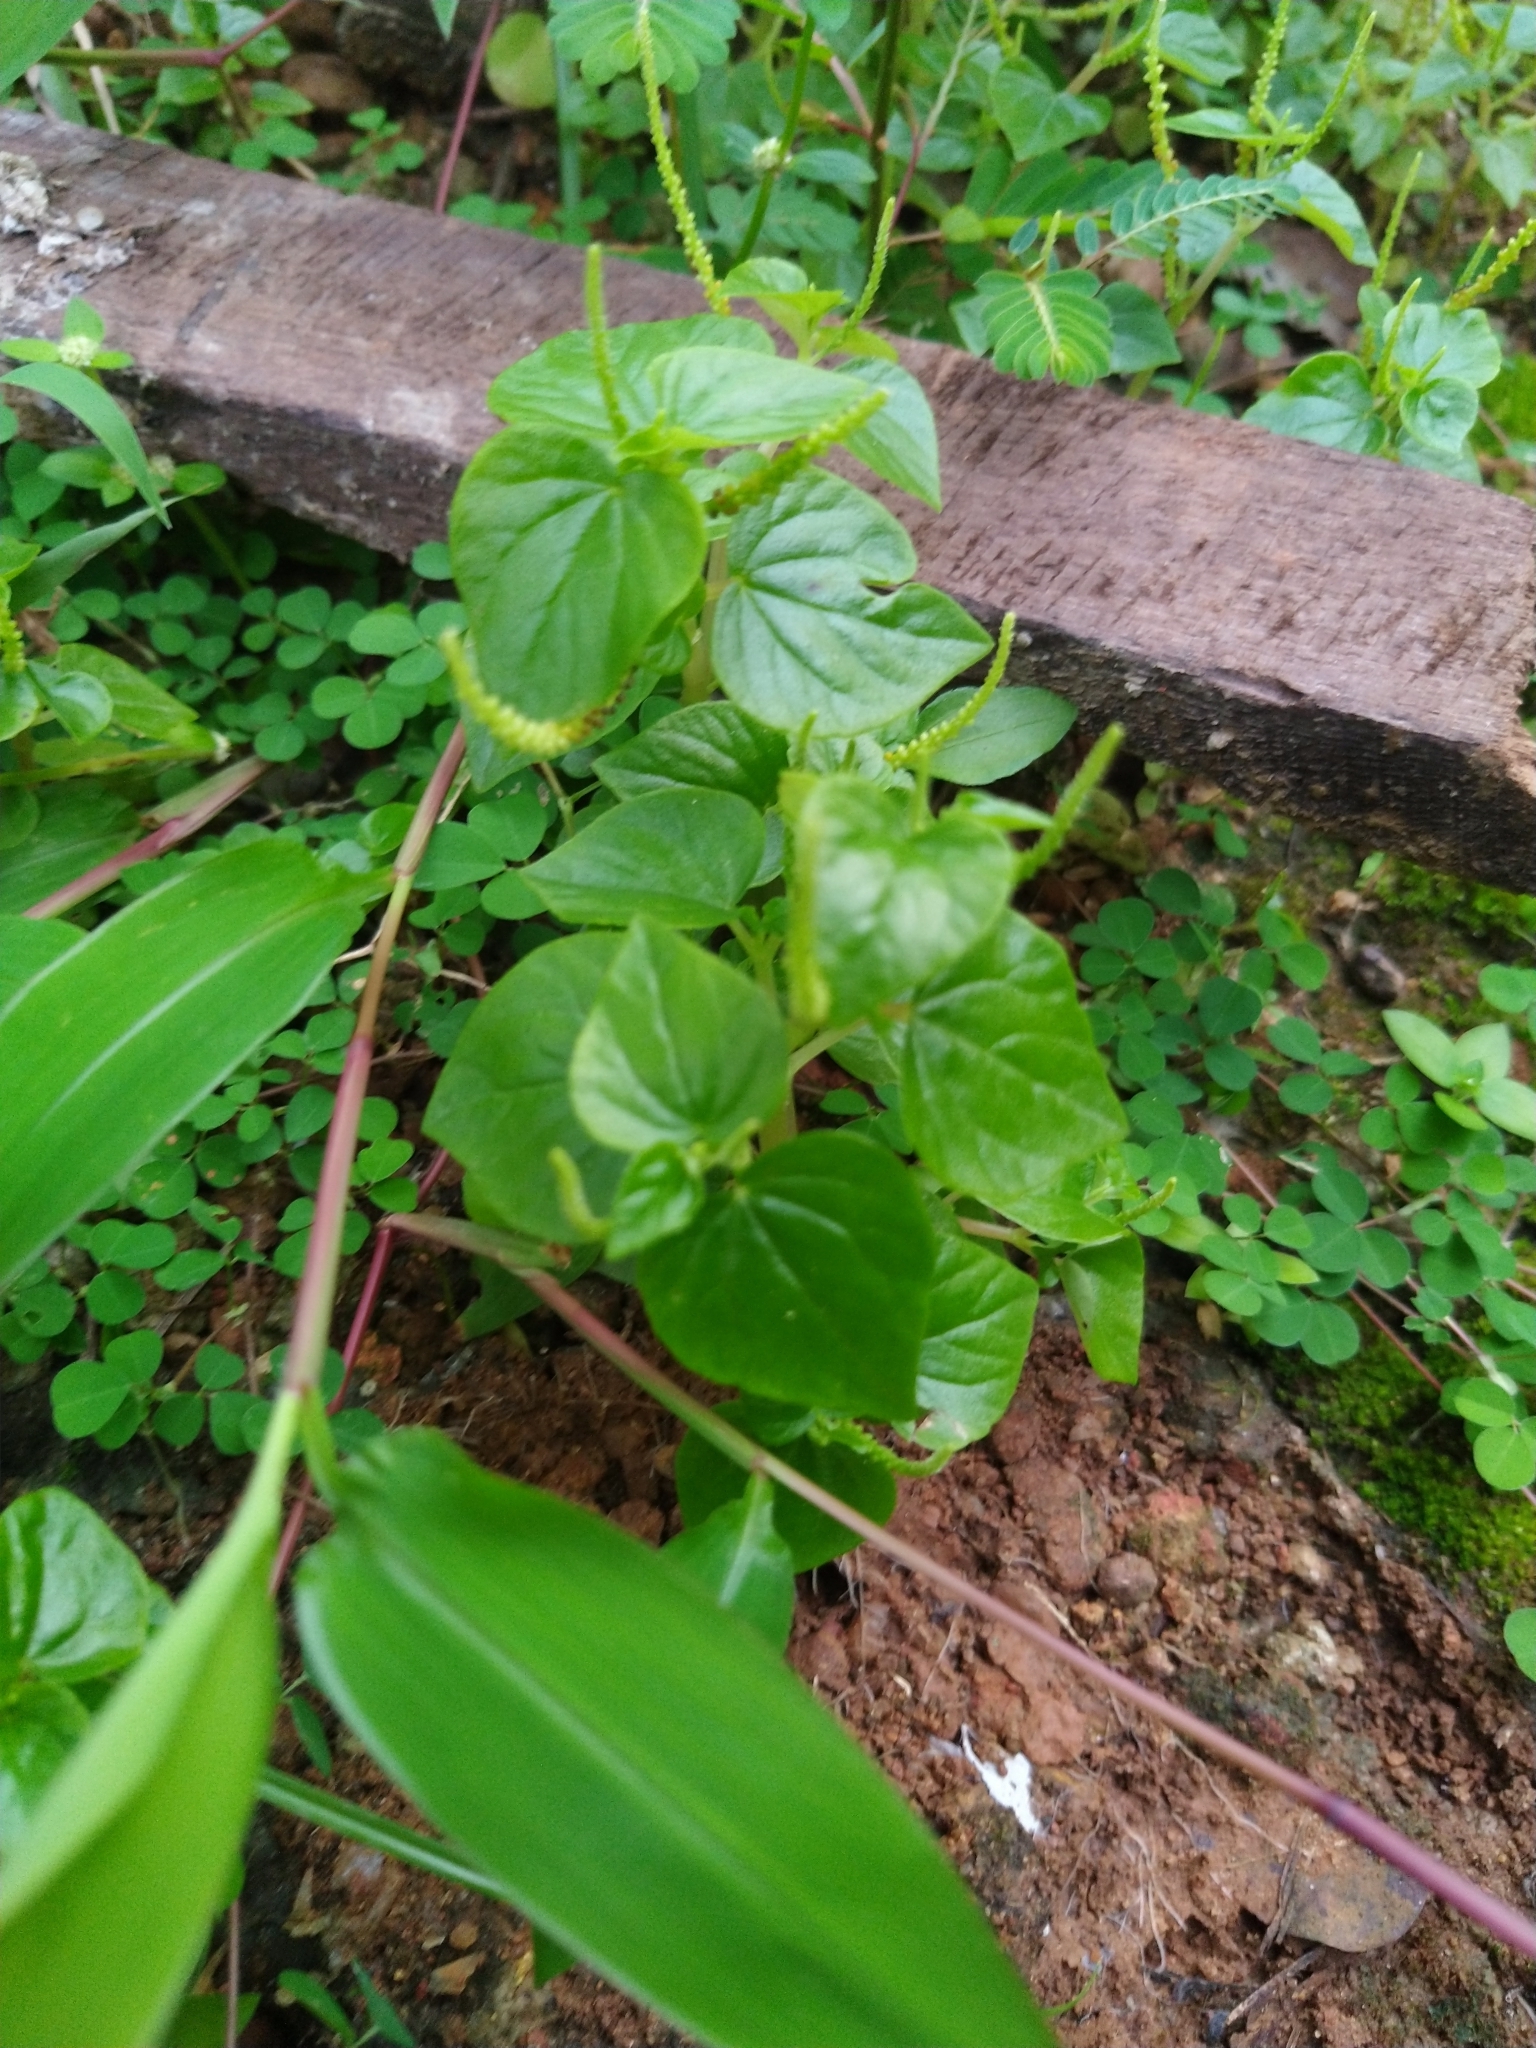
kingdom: Plantae
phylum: Tracheophyta
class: Magnoliopsida
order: Piperales
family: Piperaceae
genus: Peperomia
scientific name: Peperomia pellucida
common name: Man to man
